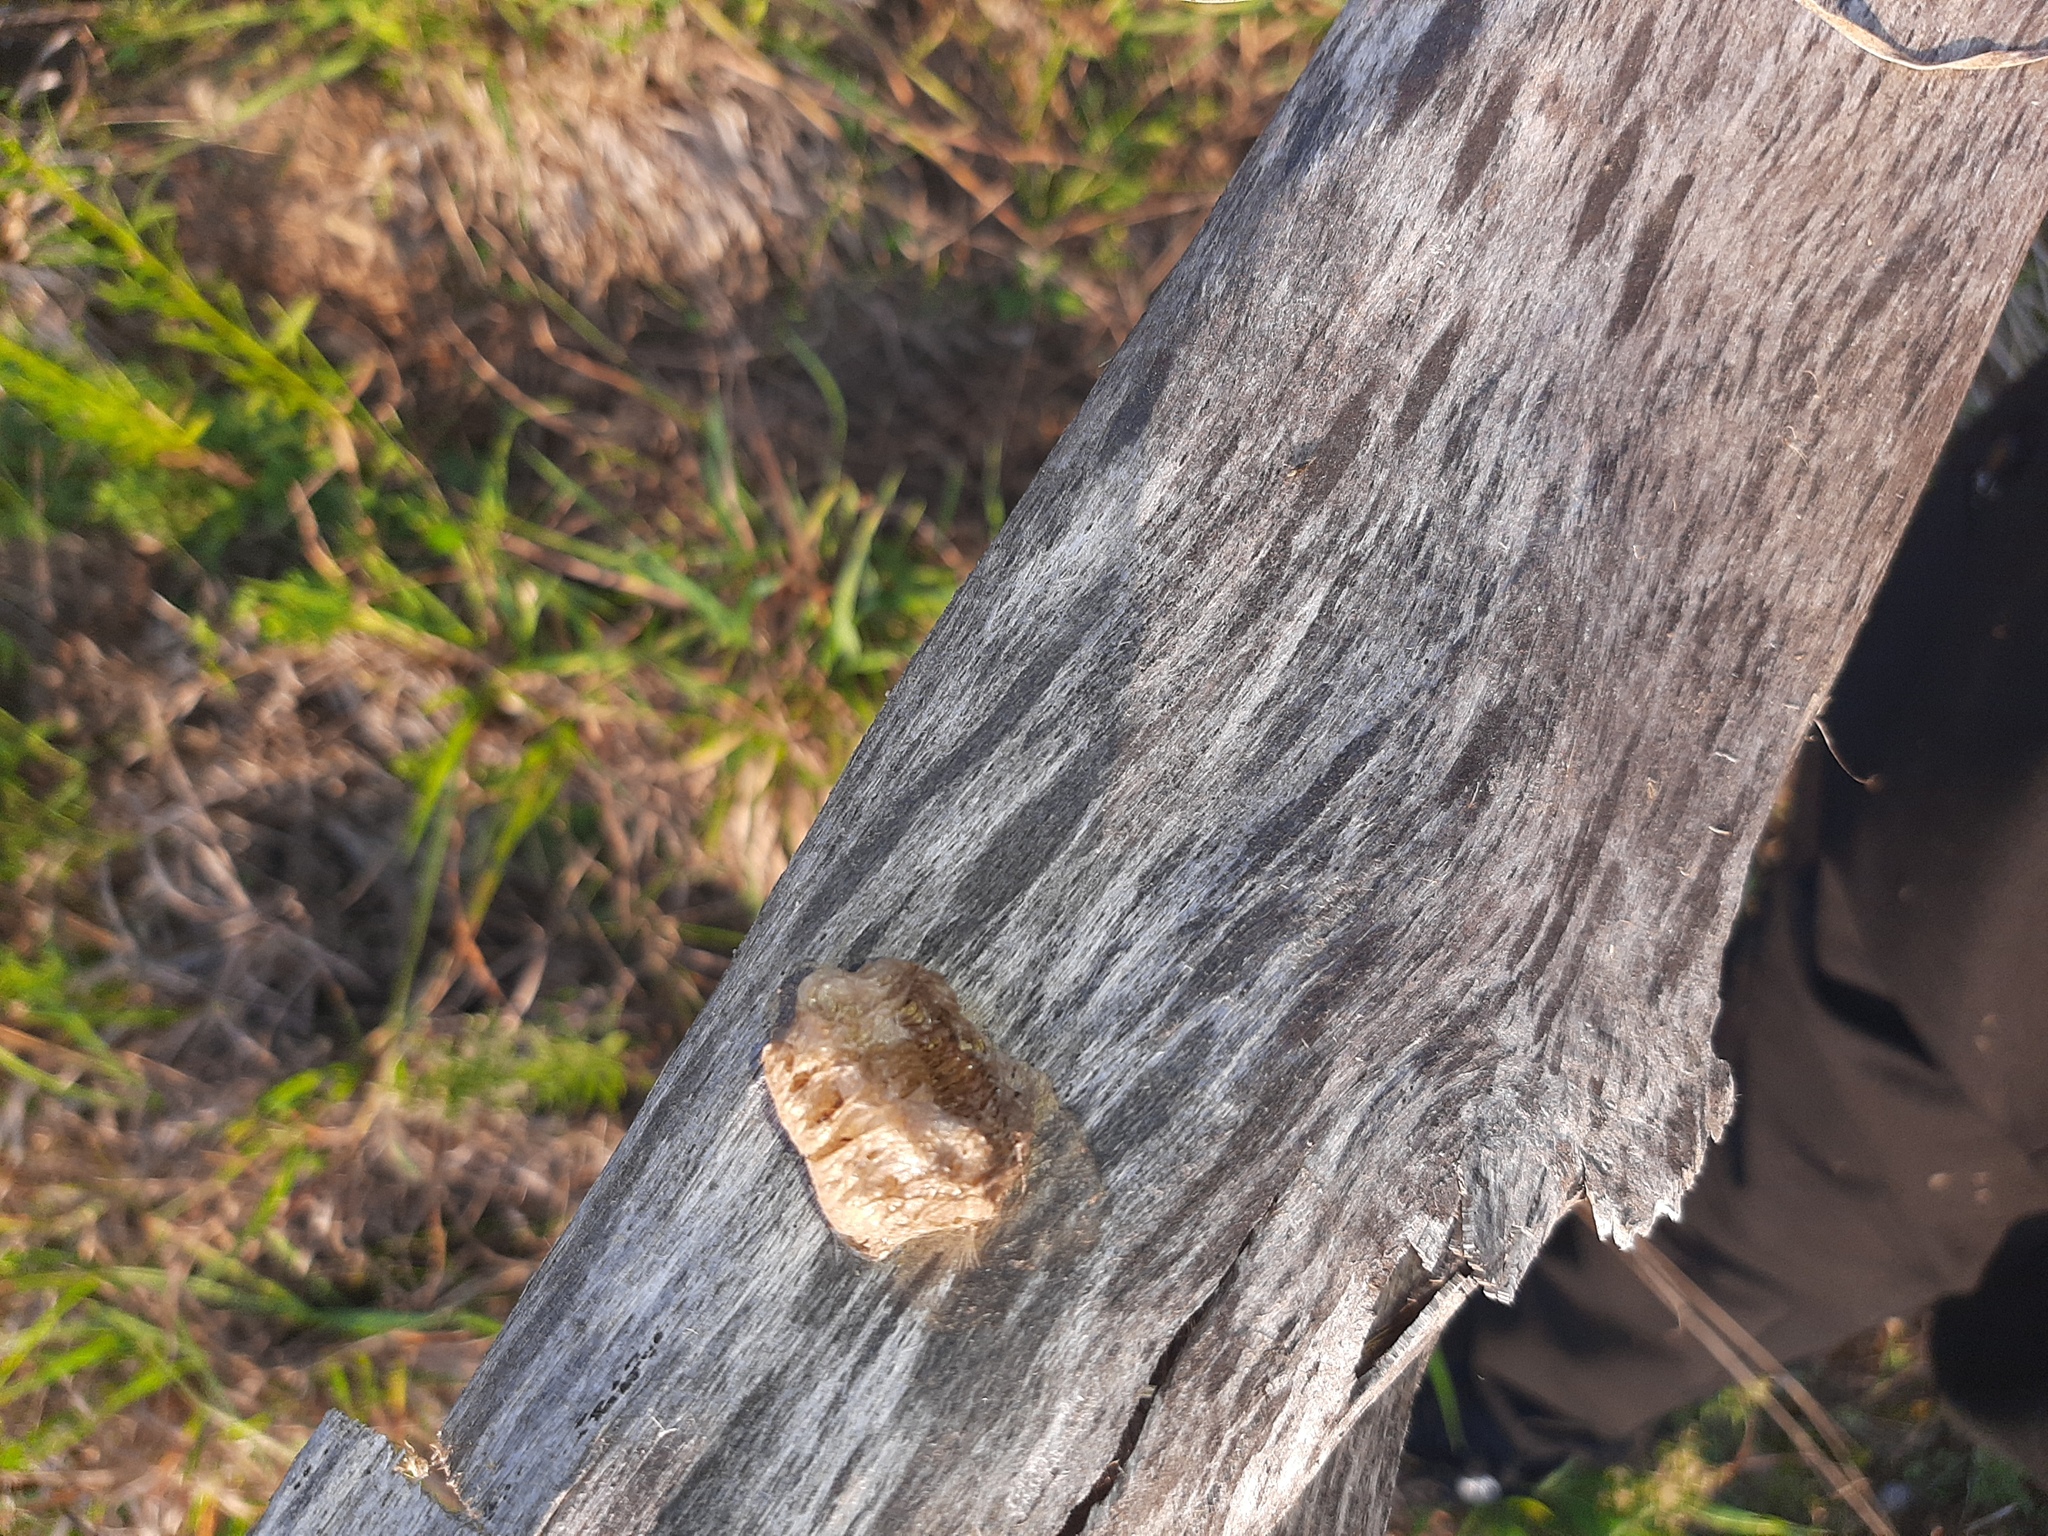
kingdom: Animalia
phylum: Arthropoda
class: Insecta
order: Mantodea
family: Mantidae
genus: Mantis
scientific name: Mantis religiosa
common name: Praying mantis
